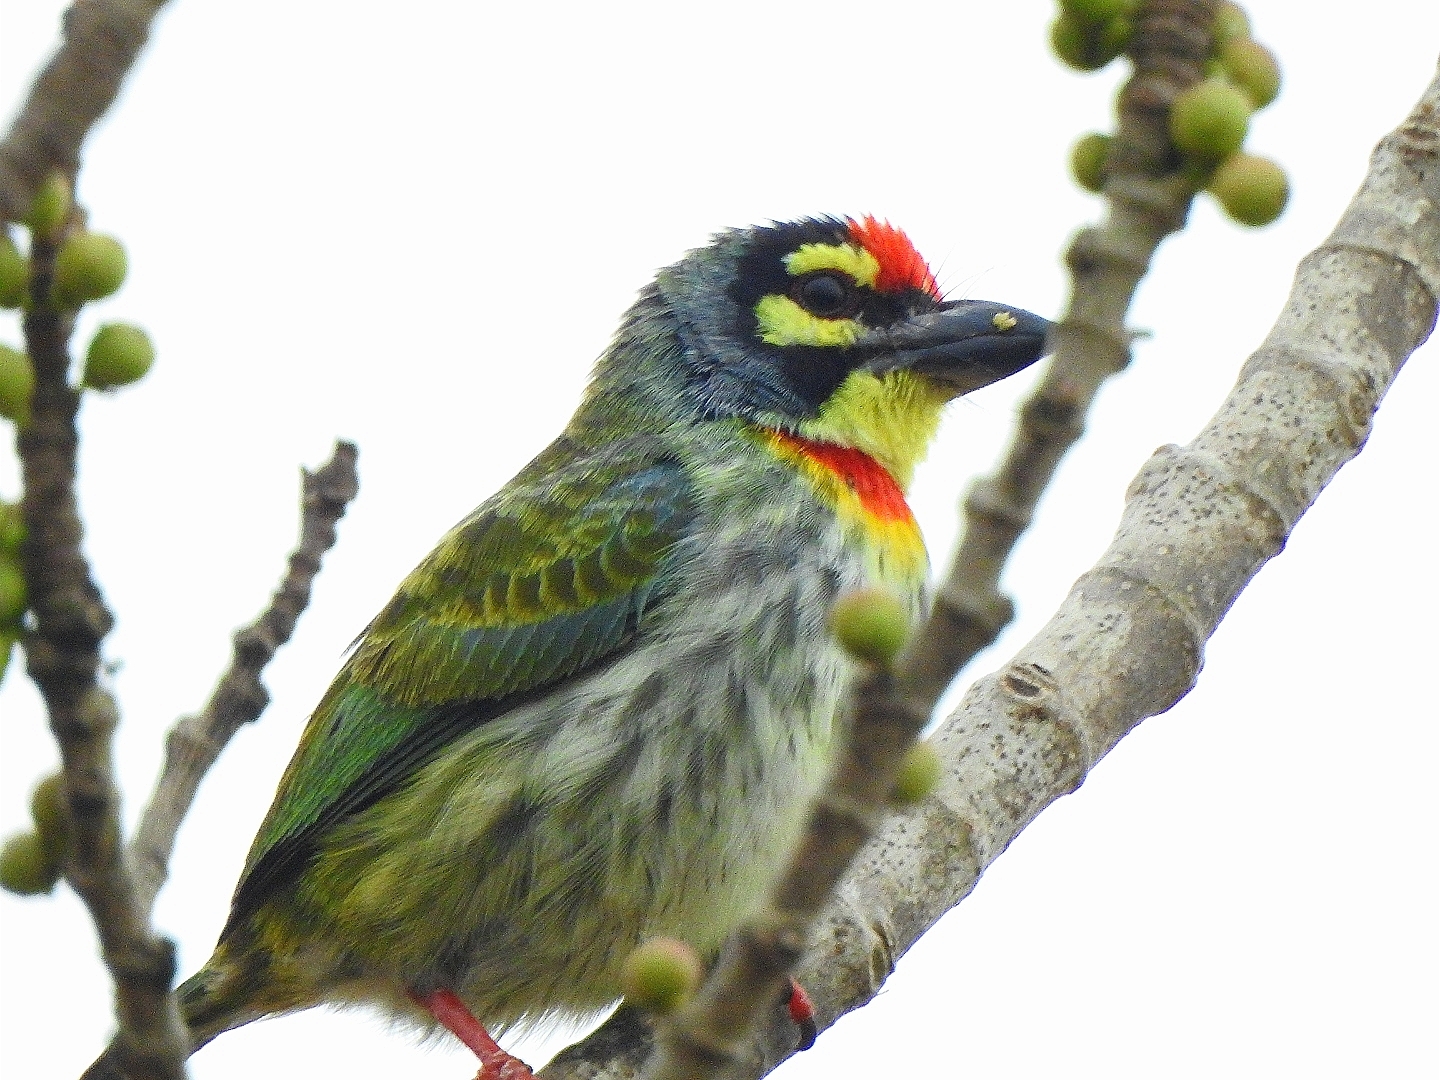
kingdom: Animalia
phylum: Chordata
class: Aves
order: Piciformes
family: Megalaimidae
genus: Psilopogon
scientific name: Psilopogon haemacephalus
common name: Coppersmith barbet
